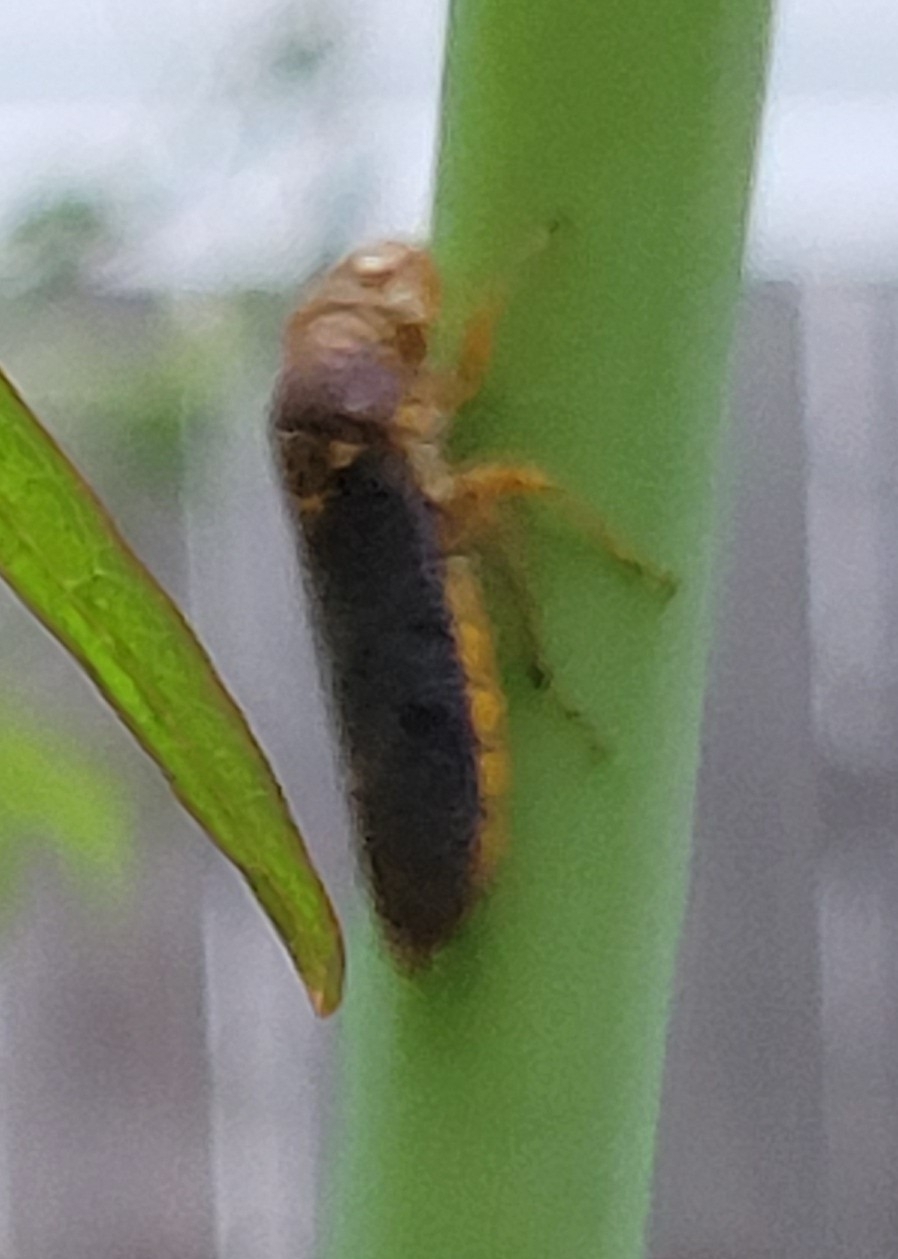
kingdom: Animalia
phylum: Arthropoda
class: Insecta
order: Hemiptera
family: Cicadellidae
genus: Oncometopia
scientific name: Oncometopia orbona
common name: Broad-headed sharpshooter
